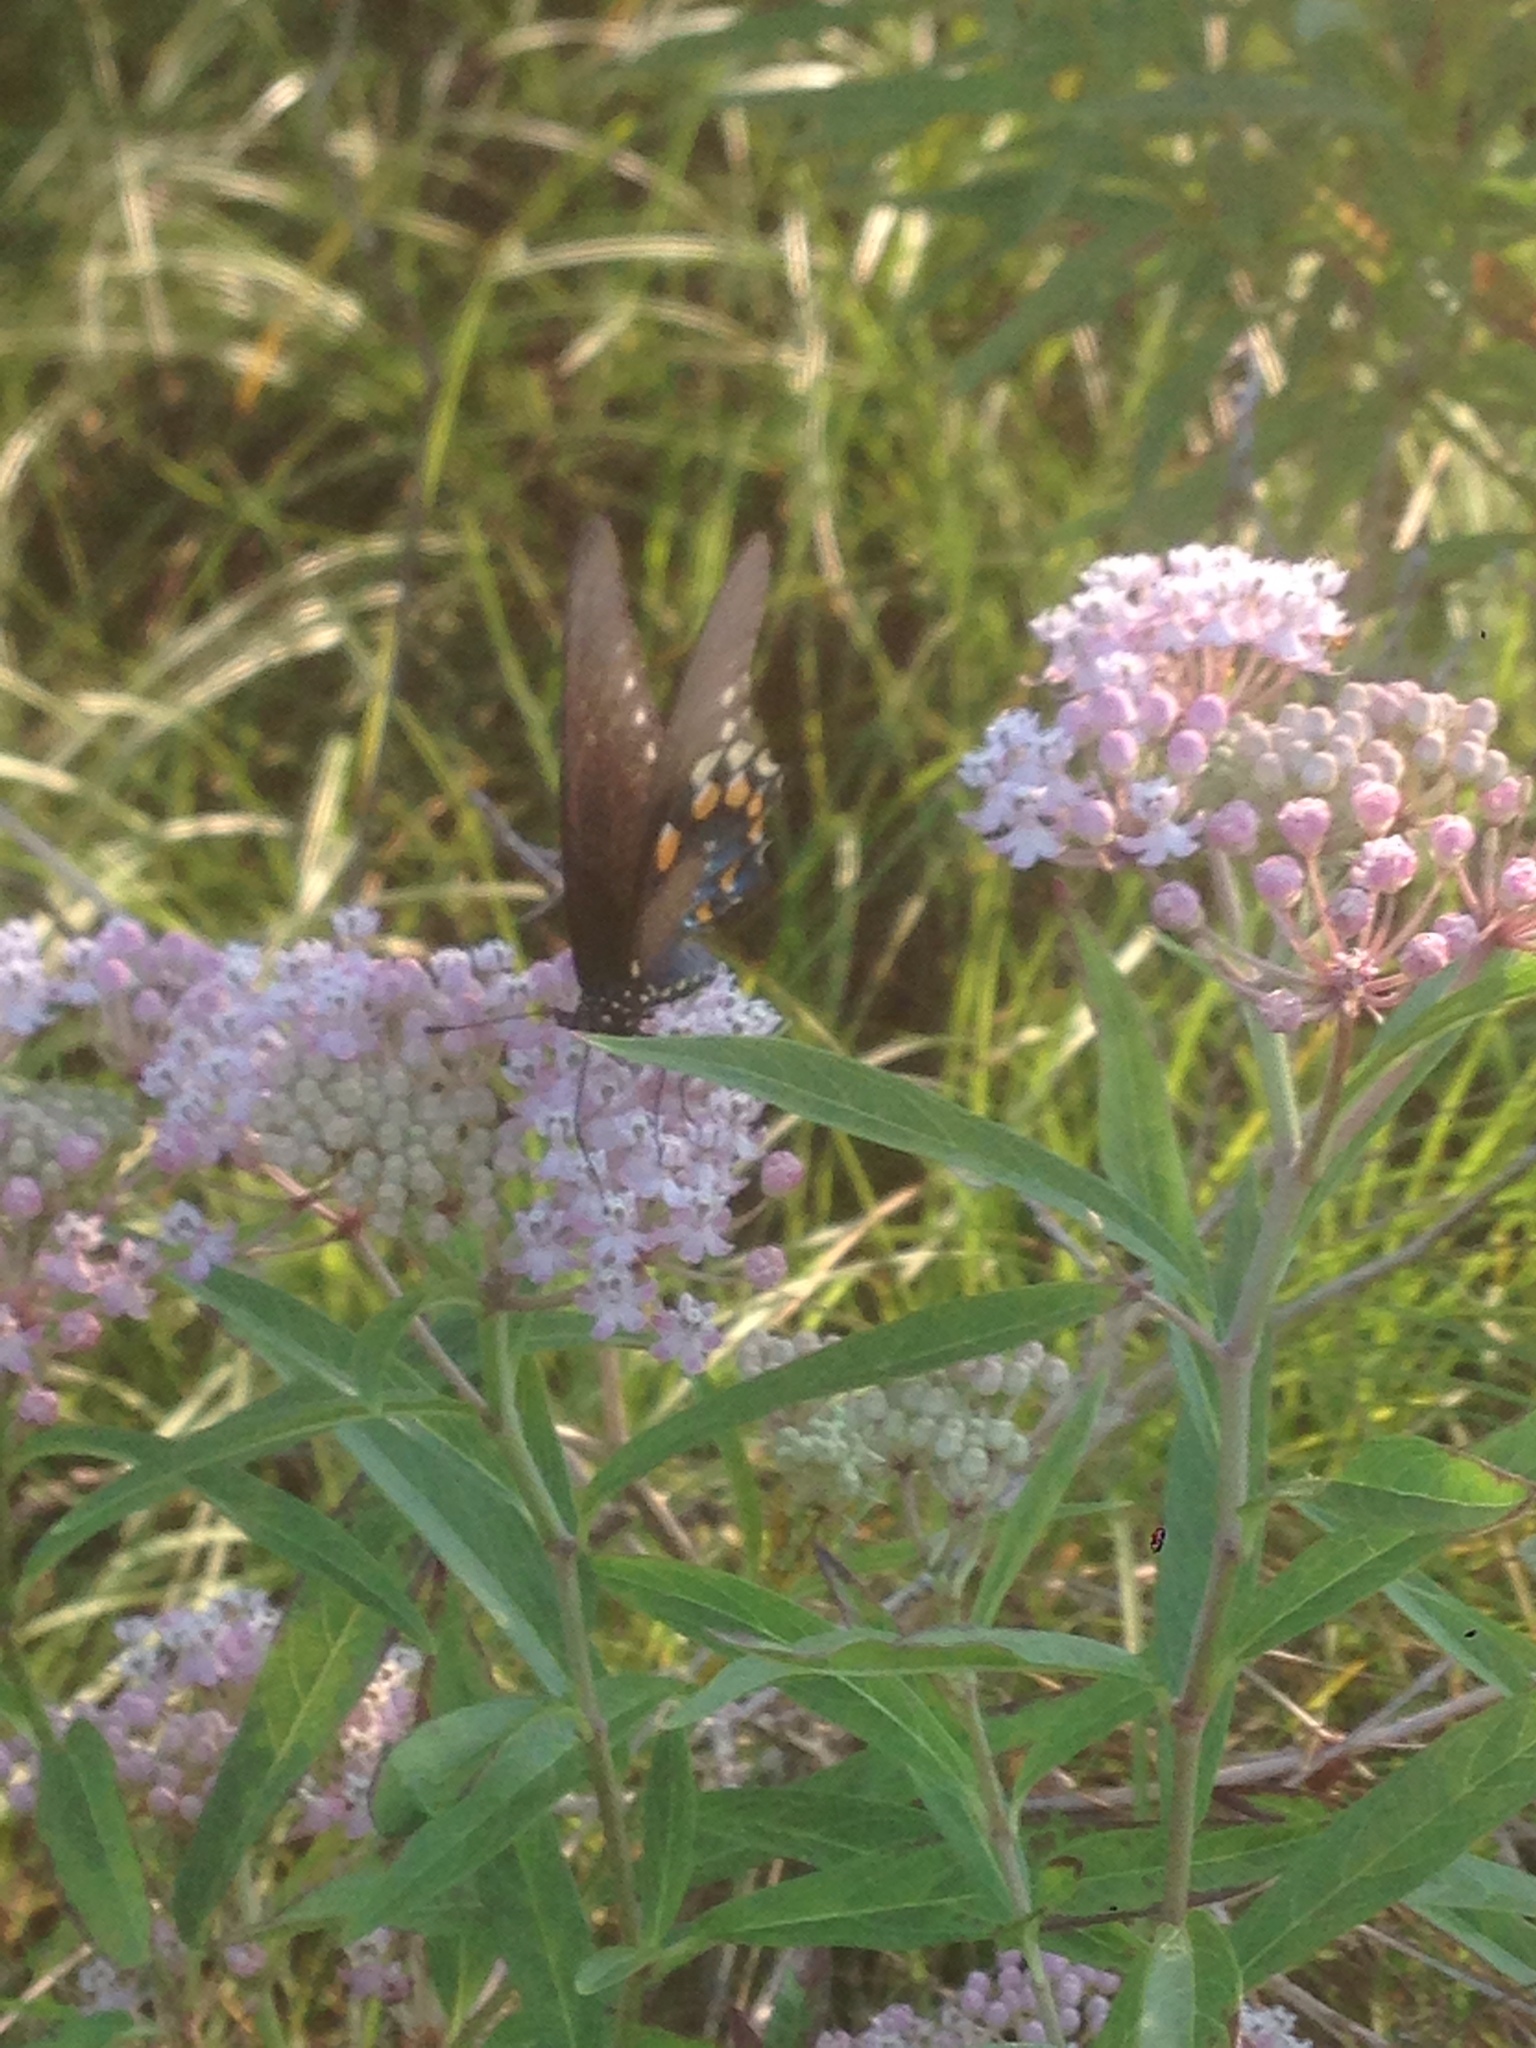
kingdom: Animalia
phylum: Arthropoda
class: Insecta
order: Lepidoptera
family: Papilionidae
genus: Battus
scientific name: Battus philenor
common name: Pipevine swallowtail
